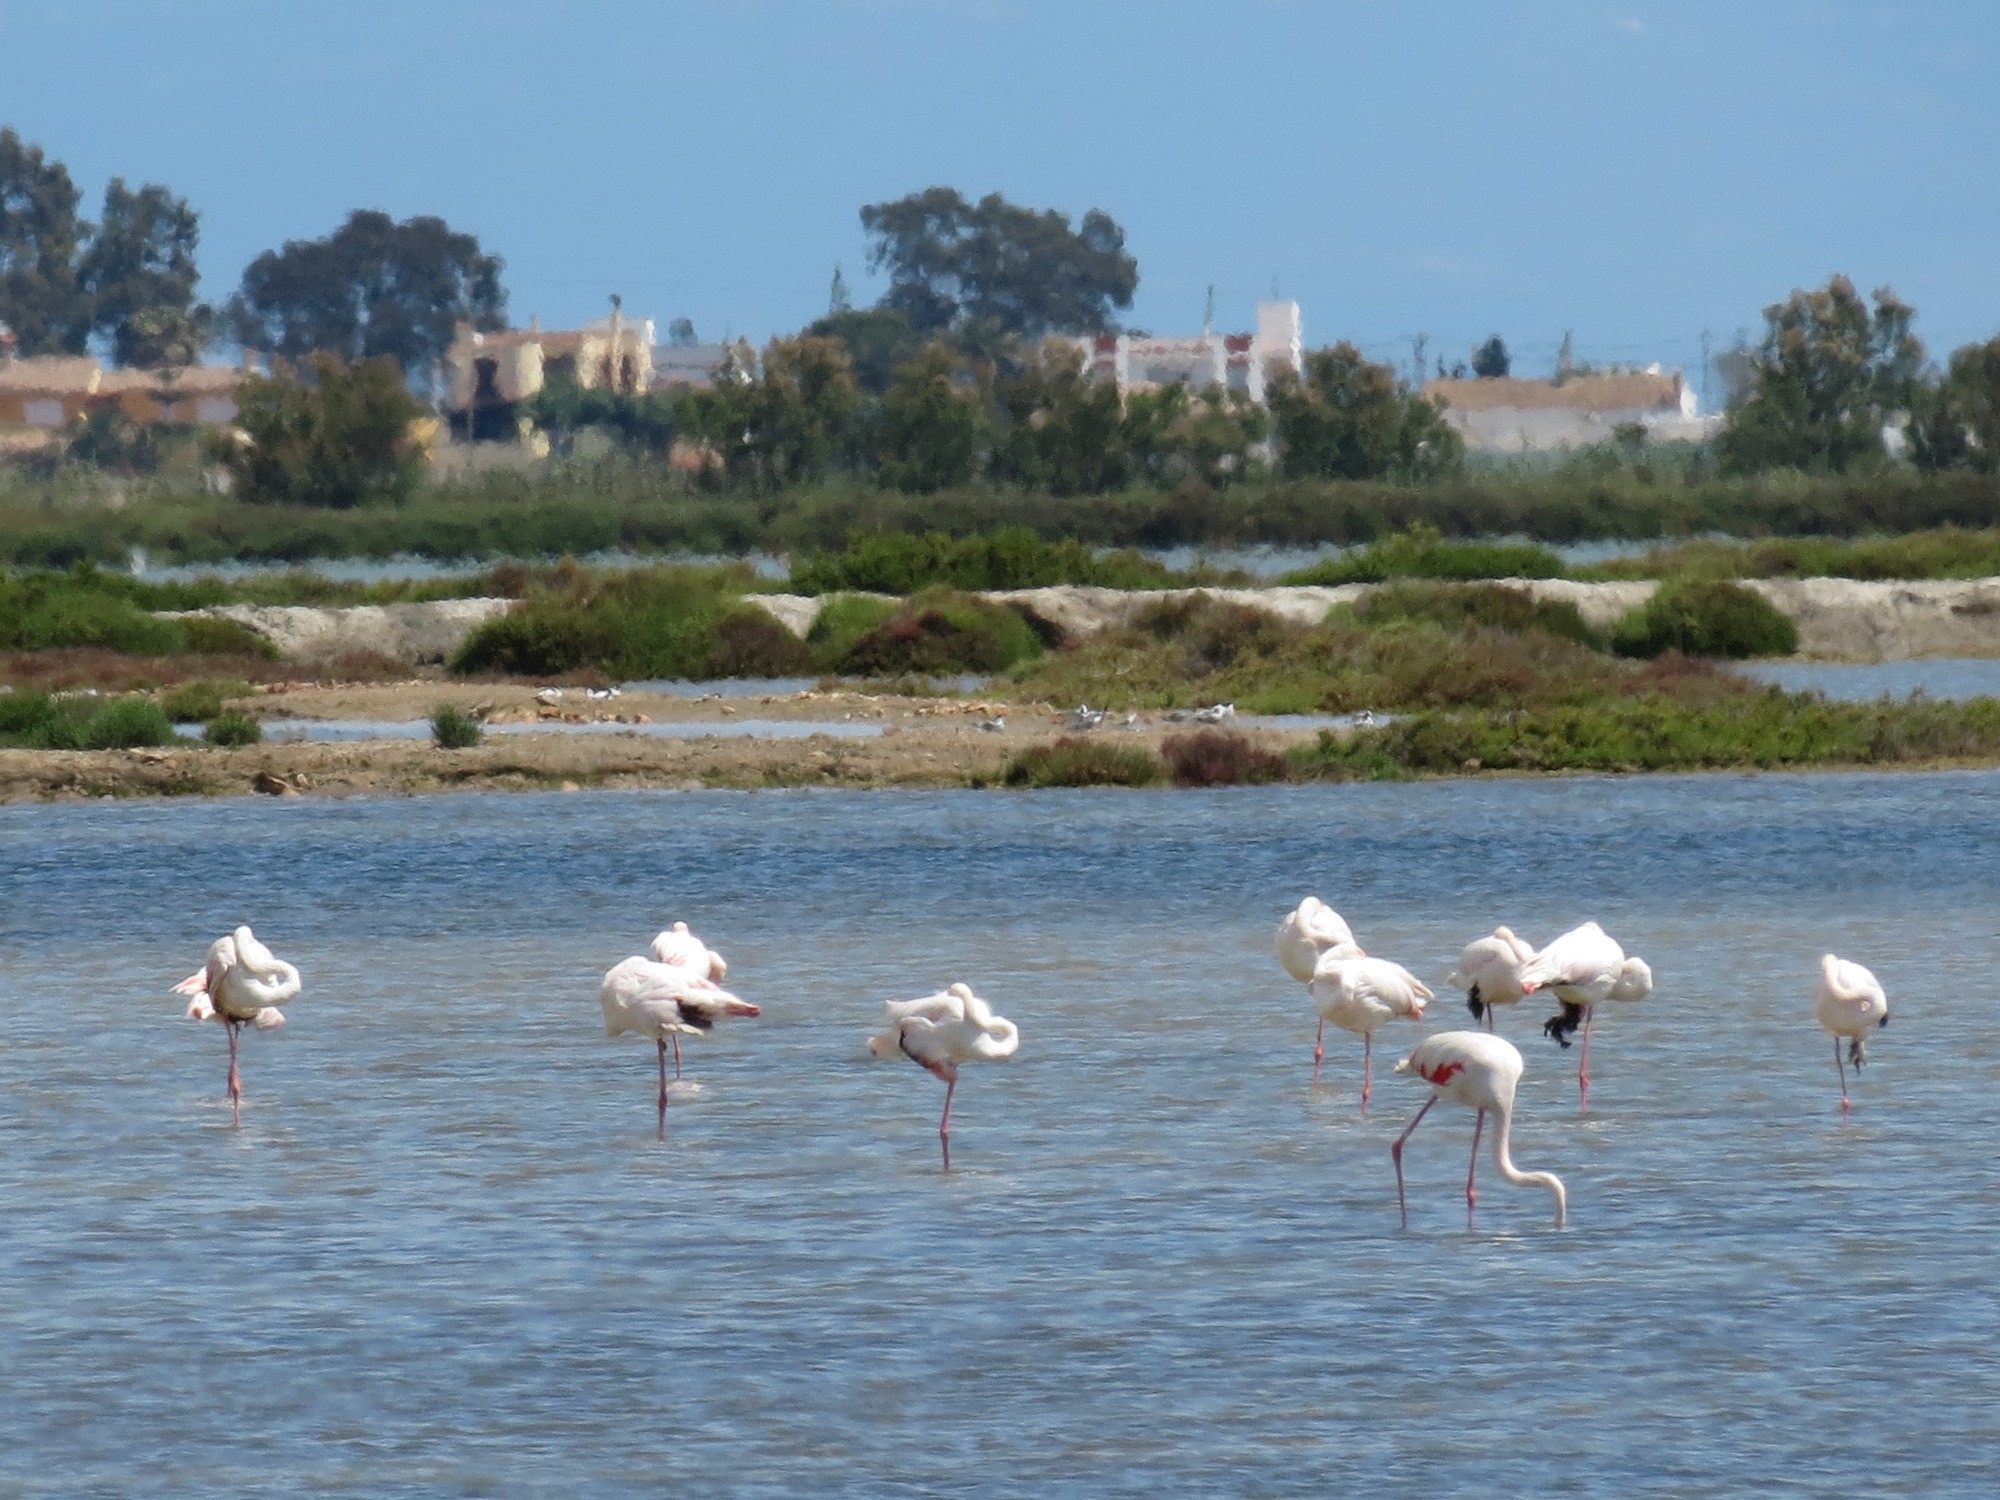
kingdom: Animalia
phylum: Chordata
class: Aves
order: Phoenicopteriformes
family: Phoenicopteridae
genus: Phoenicopterus
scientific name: Phoenicopterus roseus
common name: Greater flamingo
